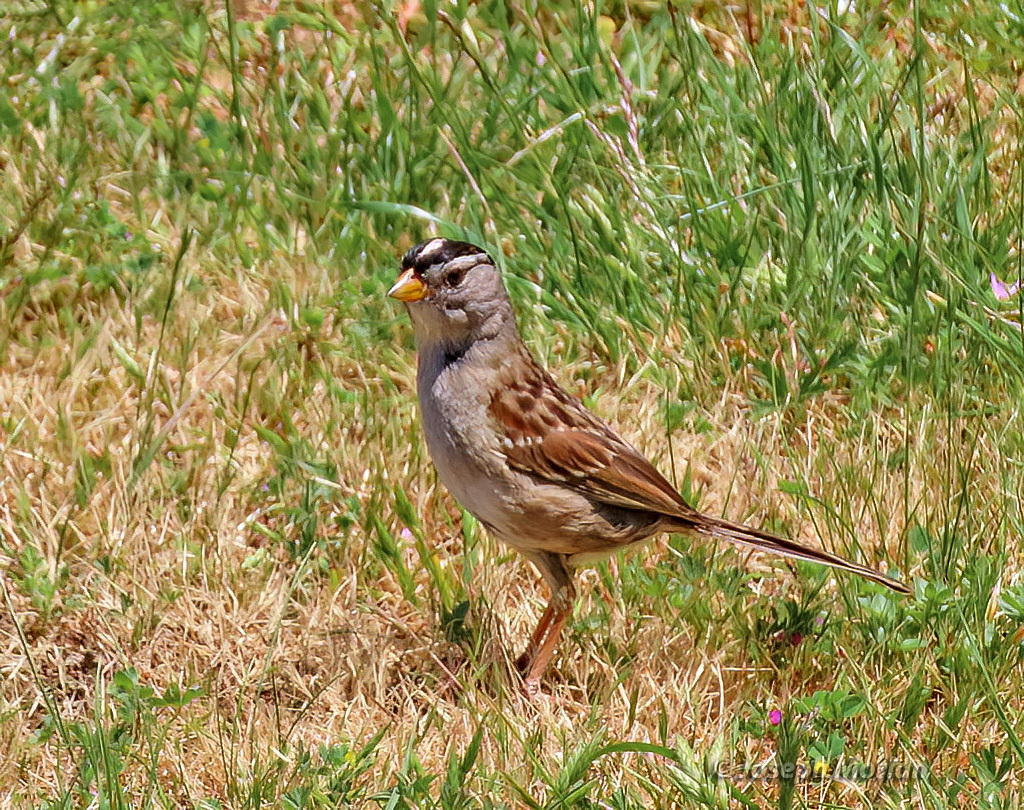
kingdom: Animalia
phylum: Chordata
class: Aves
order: Passeriformes
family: Passerellidae
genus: Zonotrichia
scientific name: Zonotrichia leucophrys
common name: White-crowned sparrow
